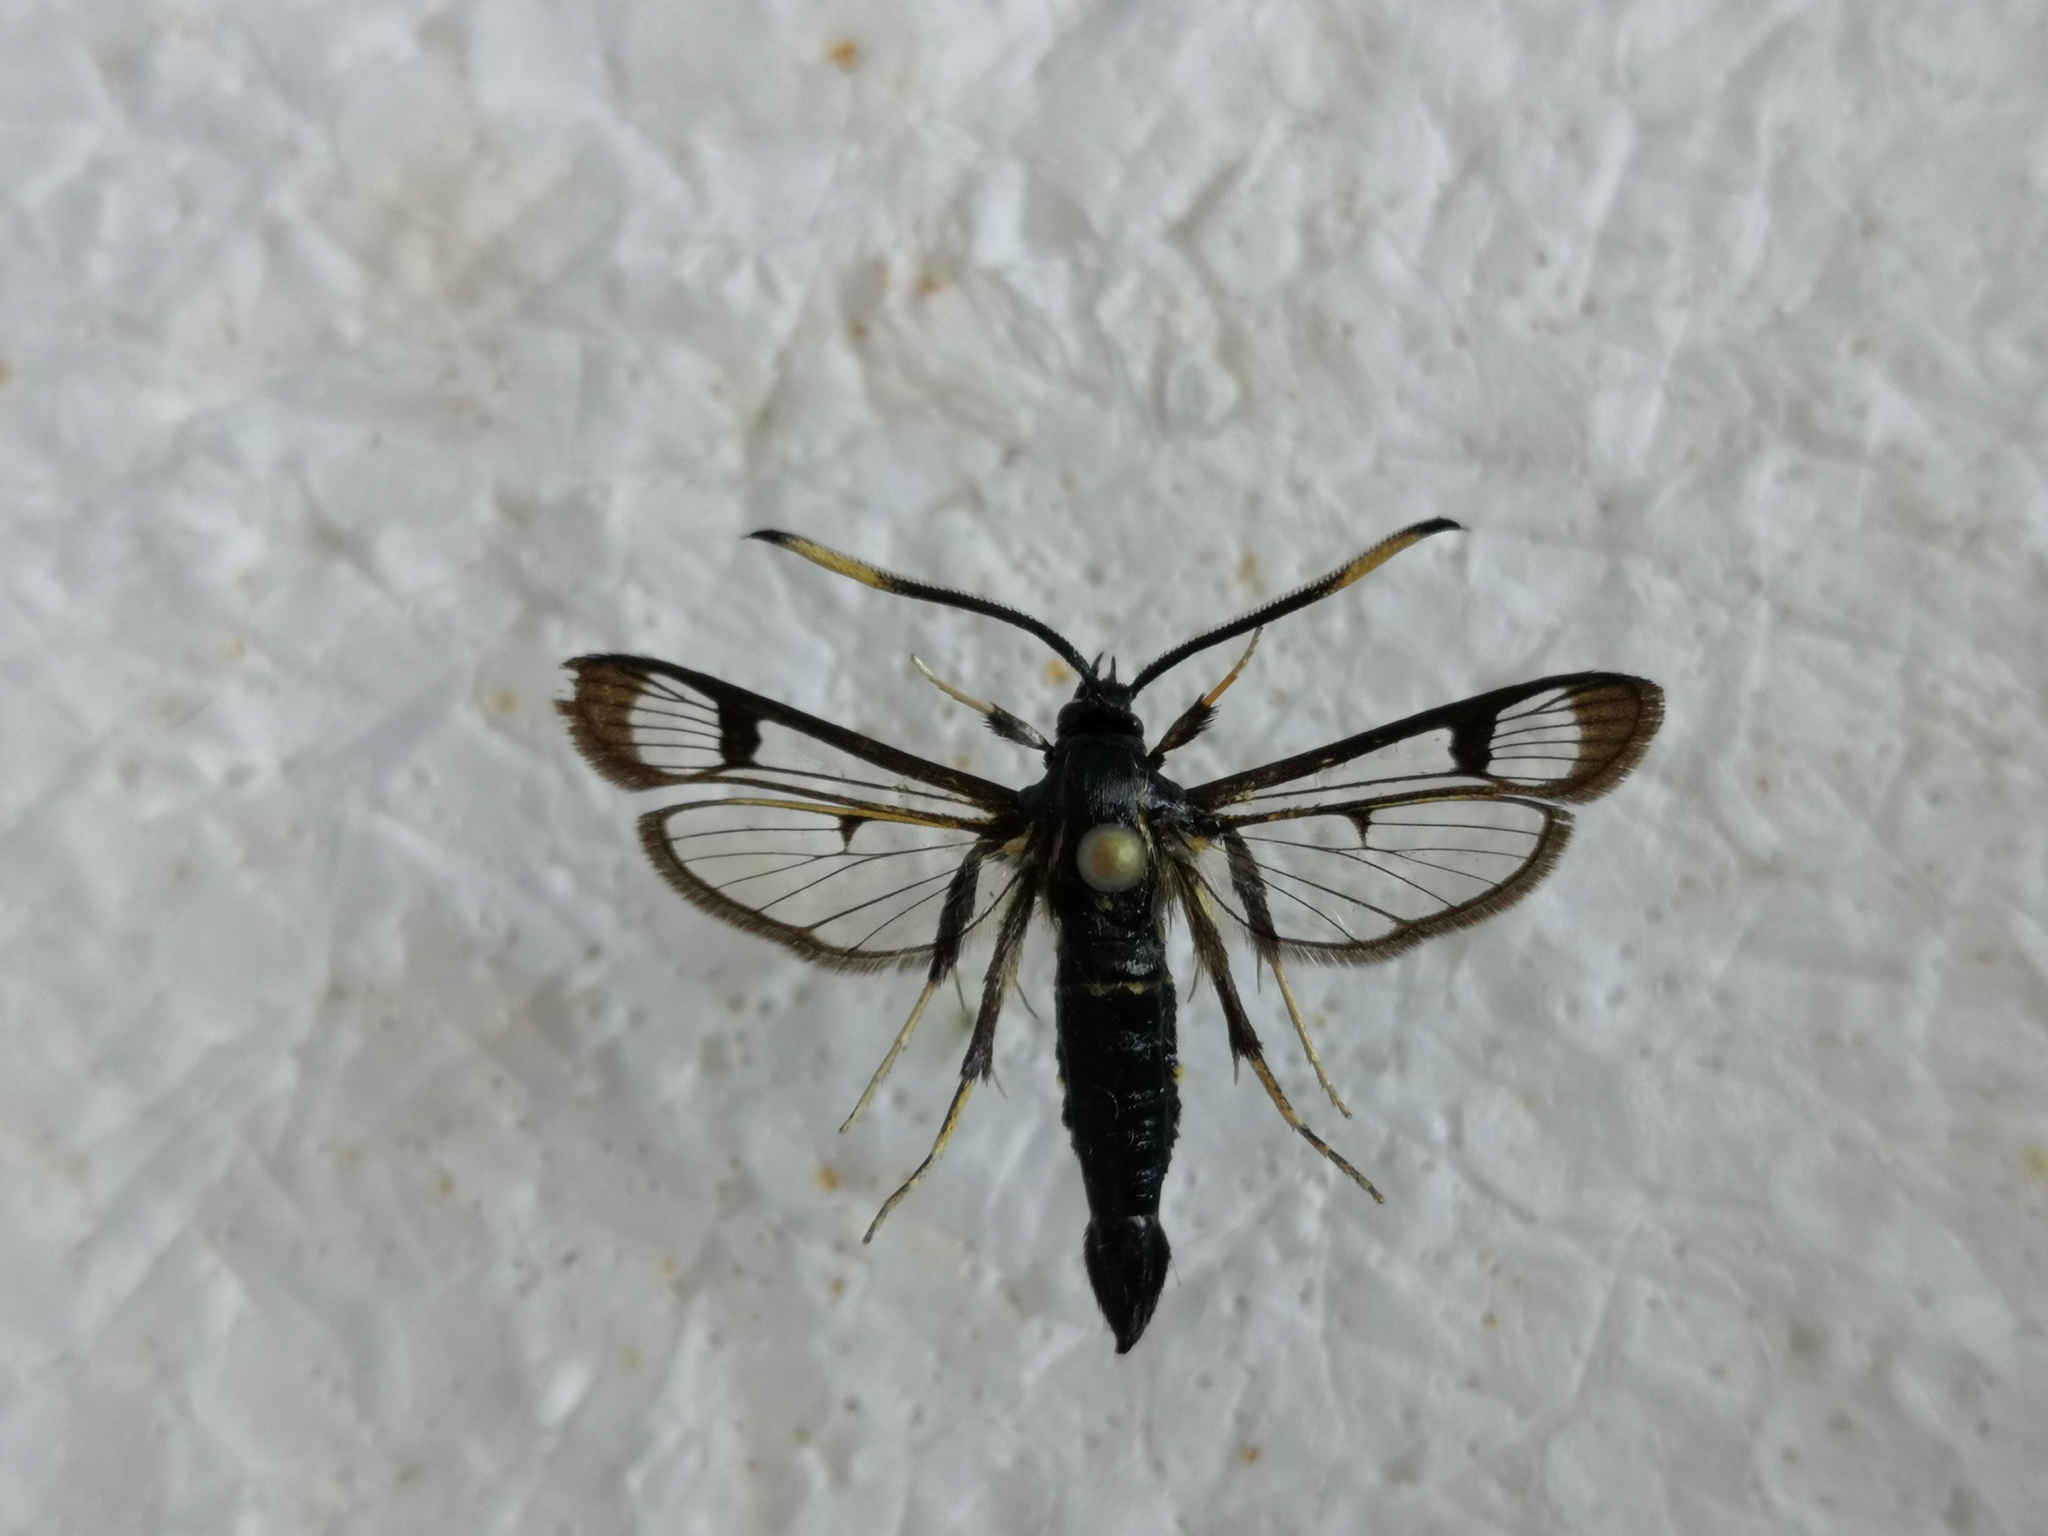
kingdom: Animalia
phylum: Arthropoda
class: Insecta
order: Lepidoptera
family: Sesiidae
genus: Synanthedon
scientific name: Synanthedon spheciformis
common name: White-barred clearwing
